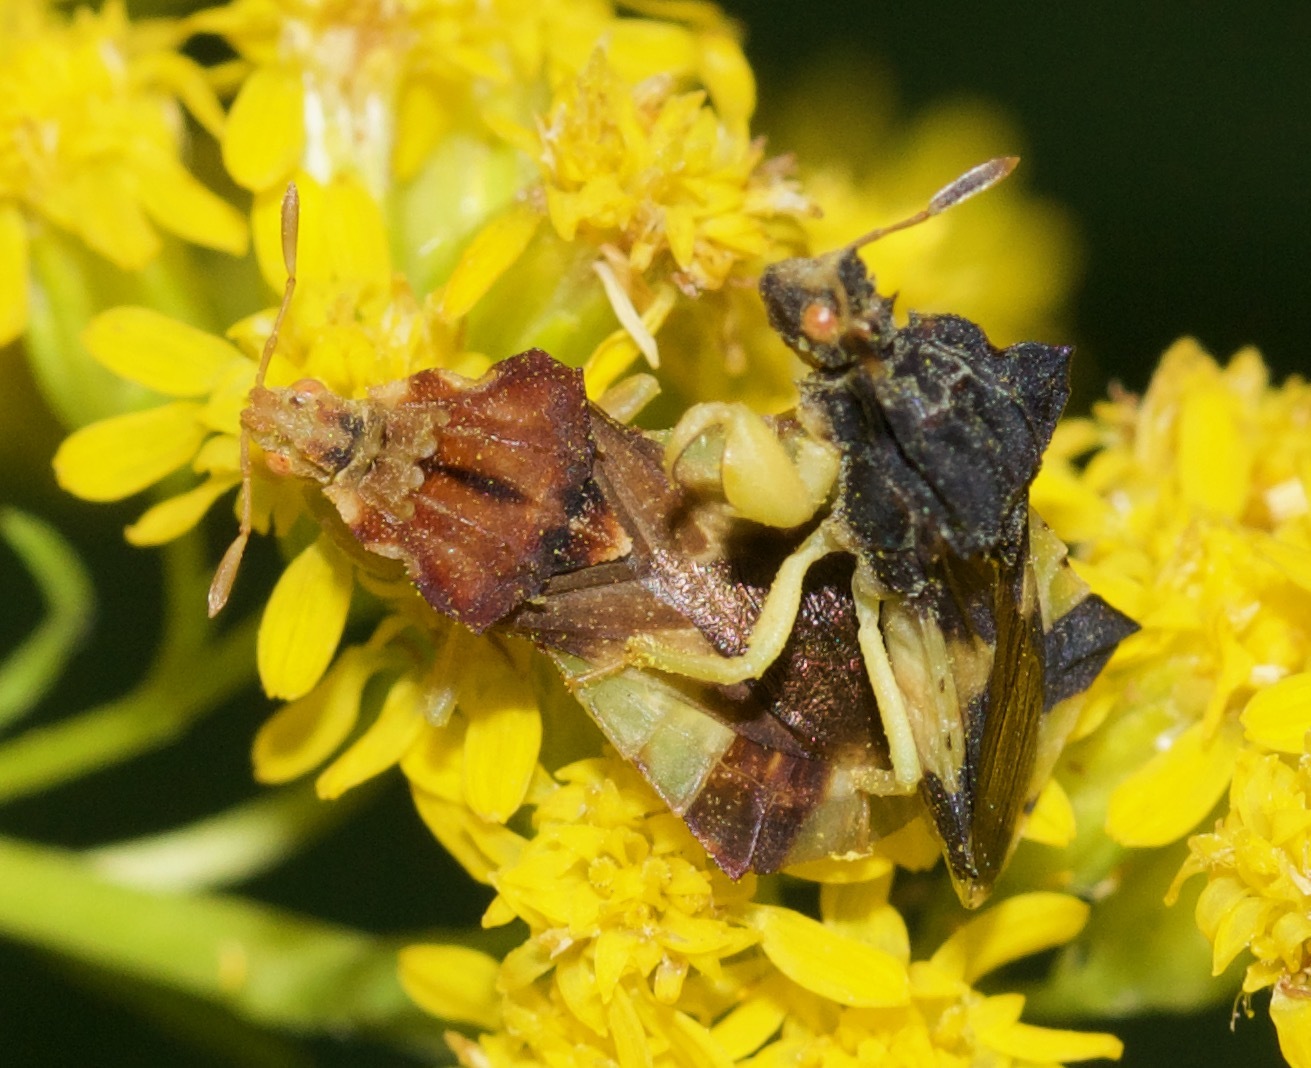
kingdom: Animalia
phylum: Arthropoda
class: Insecta
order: Hemiptera
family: Reduviidae
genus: Phymata
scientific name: Phymata pennsylvanica
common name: Pennsylvania ambush bug
